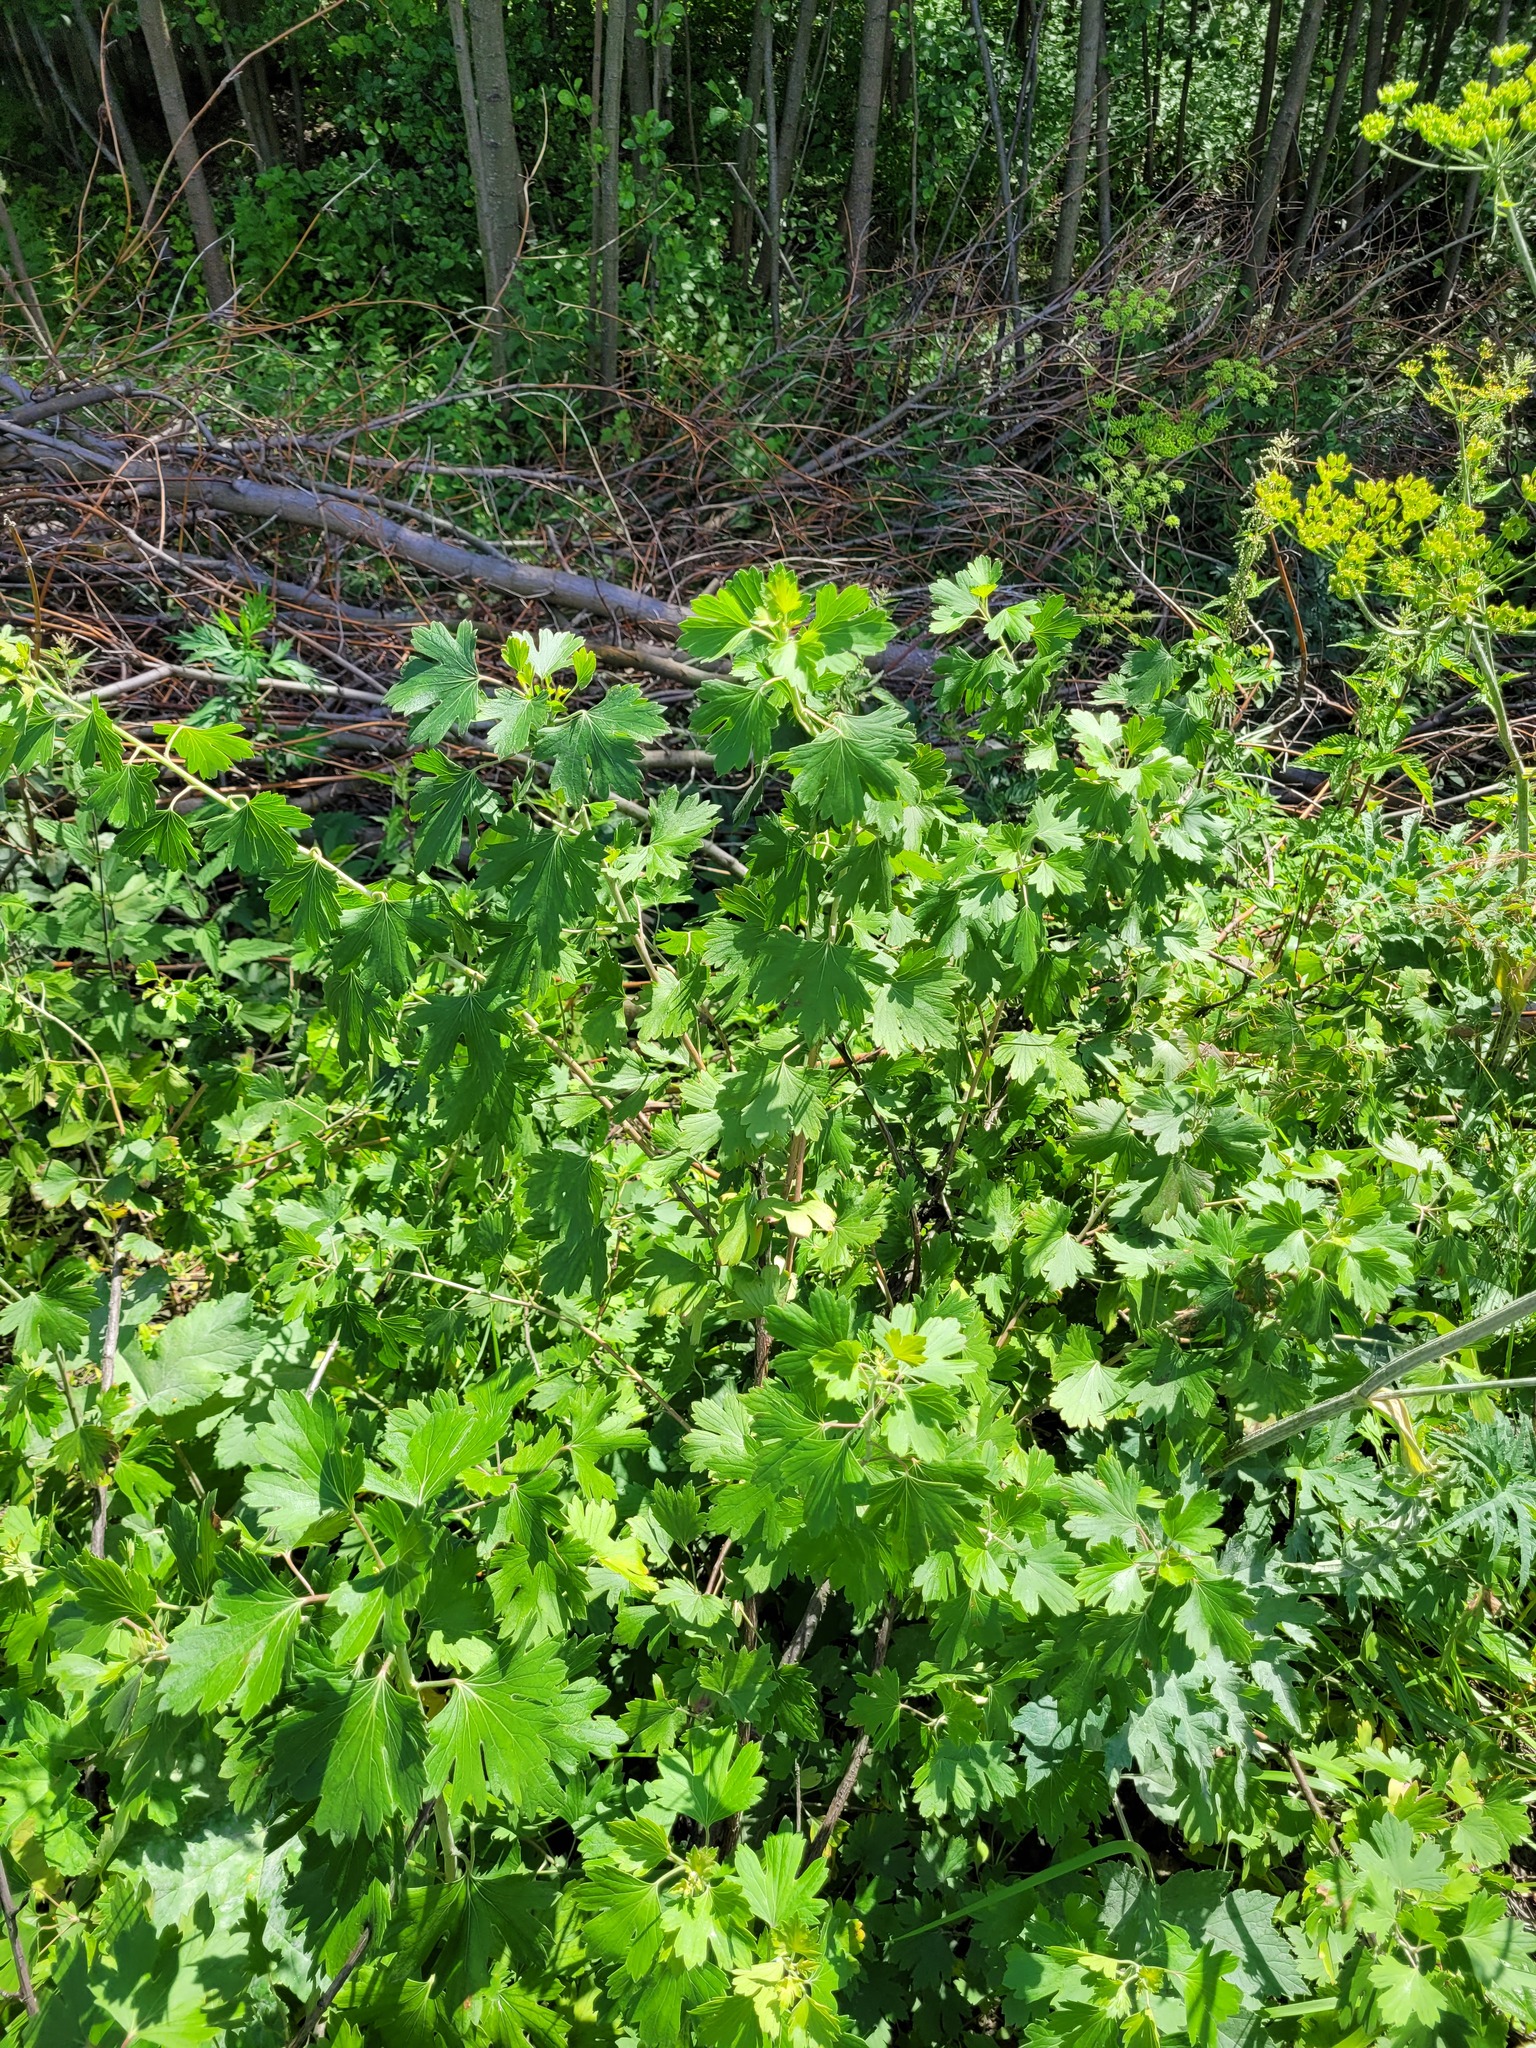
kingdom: Plantae
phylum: Tracheophyta
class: Magnoliopsida
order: Saxifragales
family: Grossulariaceae
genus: Ribes
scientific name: Ribes aureum
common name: Golden currant
